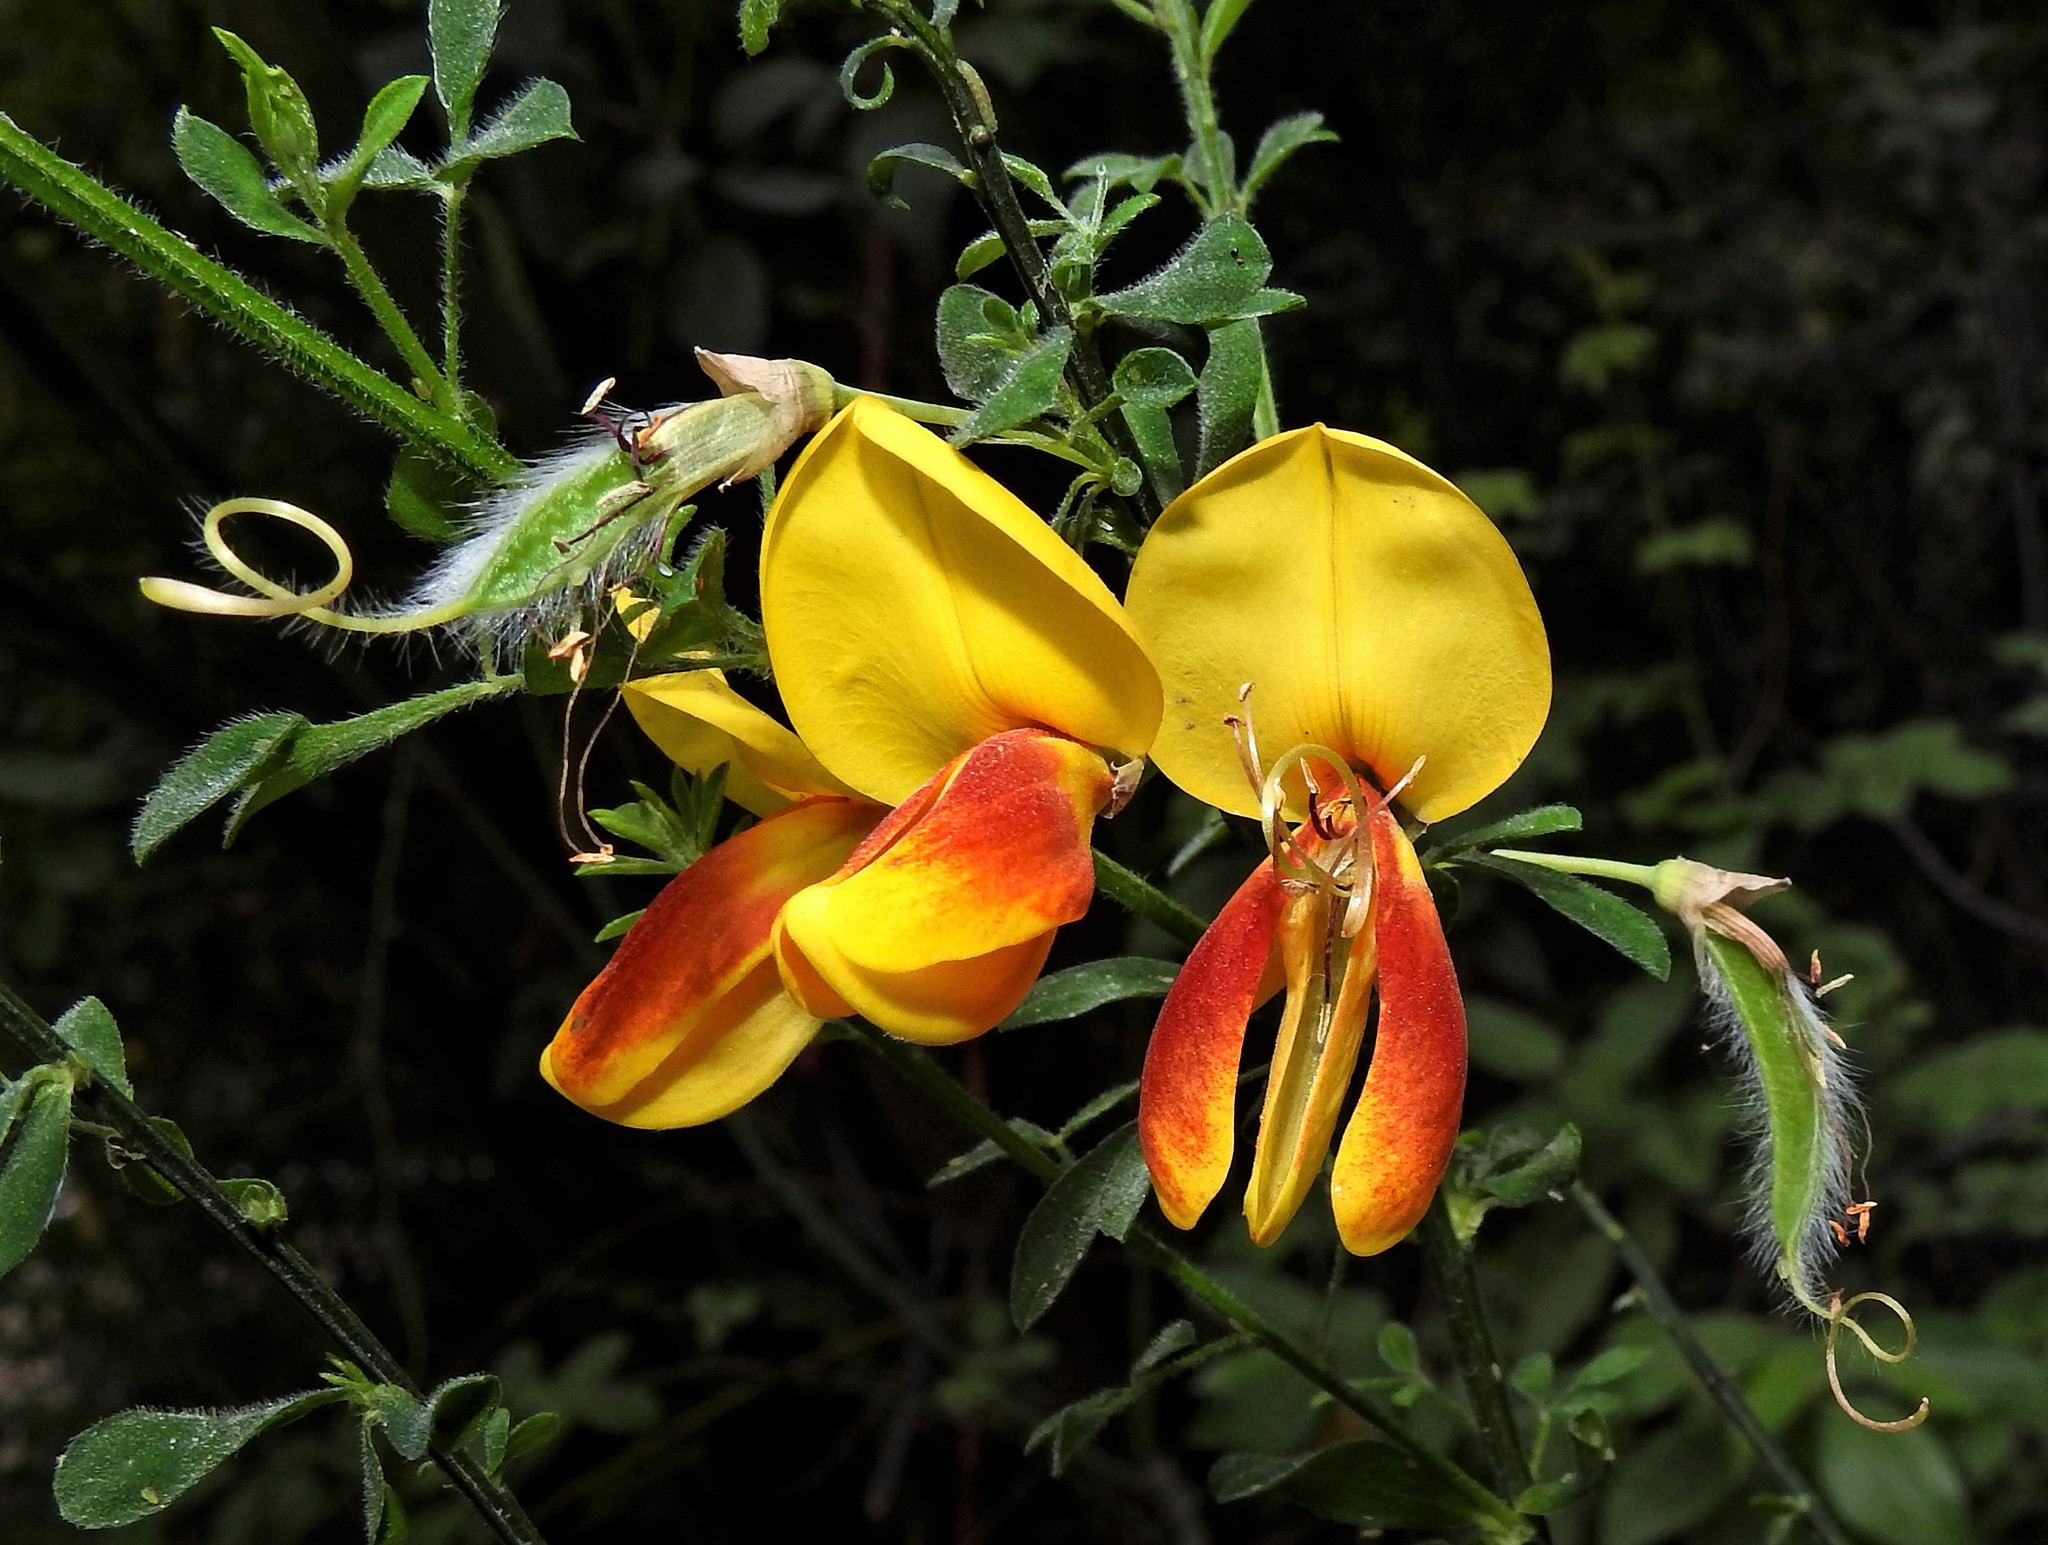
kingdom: Plantae
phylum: Tracheophyta
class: Magnoliopsida
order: Fabales
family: Fabaceae
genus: Cytisus
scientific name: Cytisus scoparius
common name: Scotch broom
